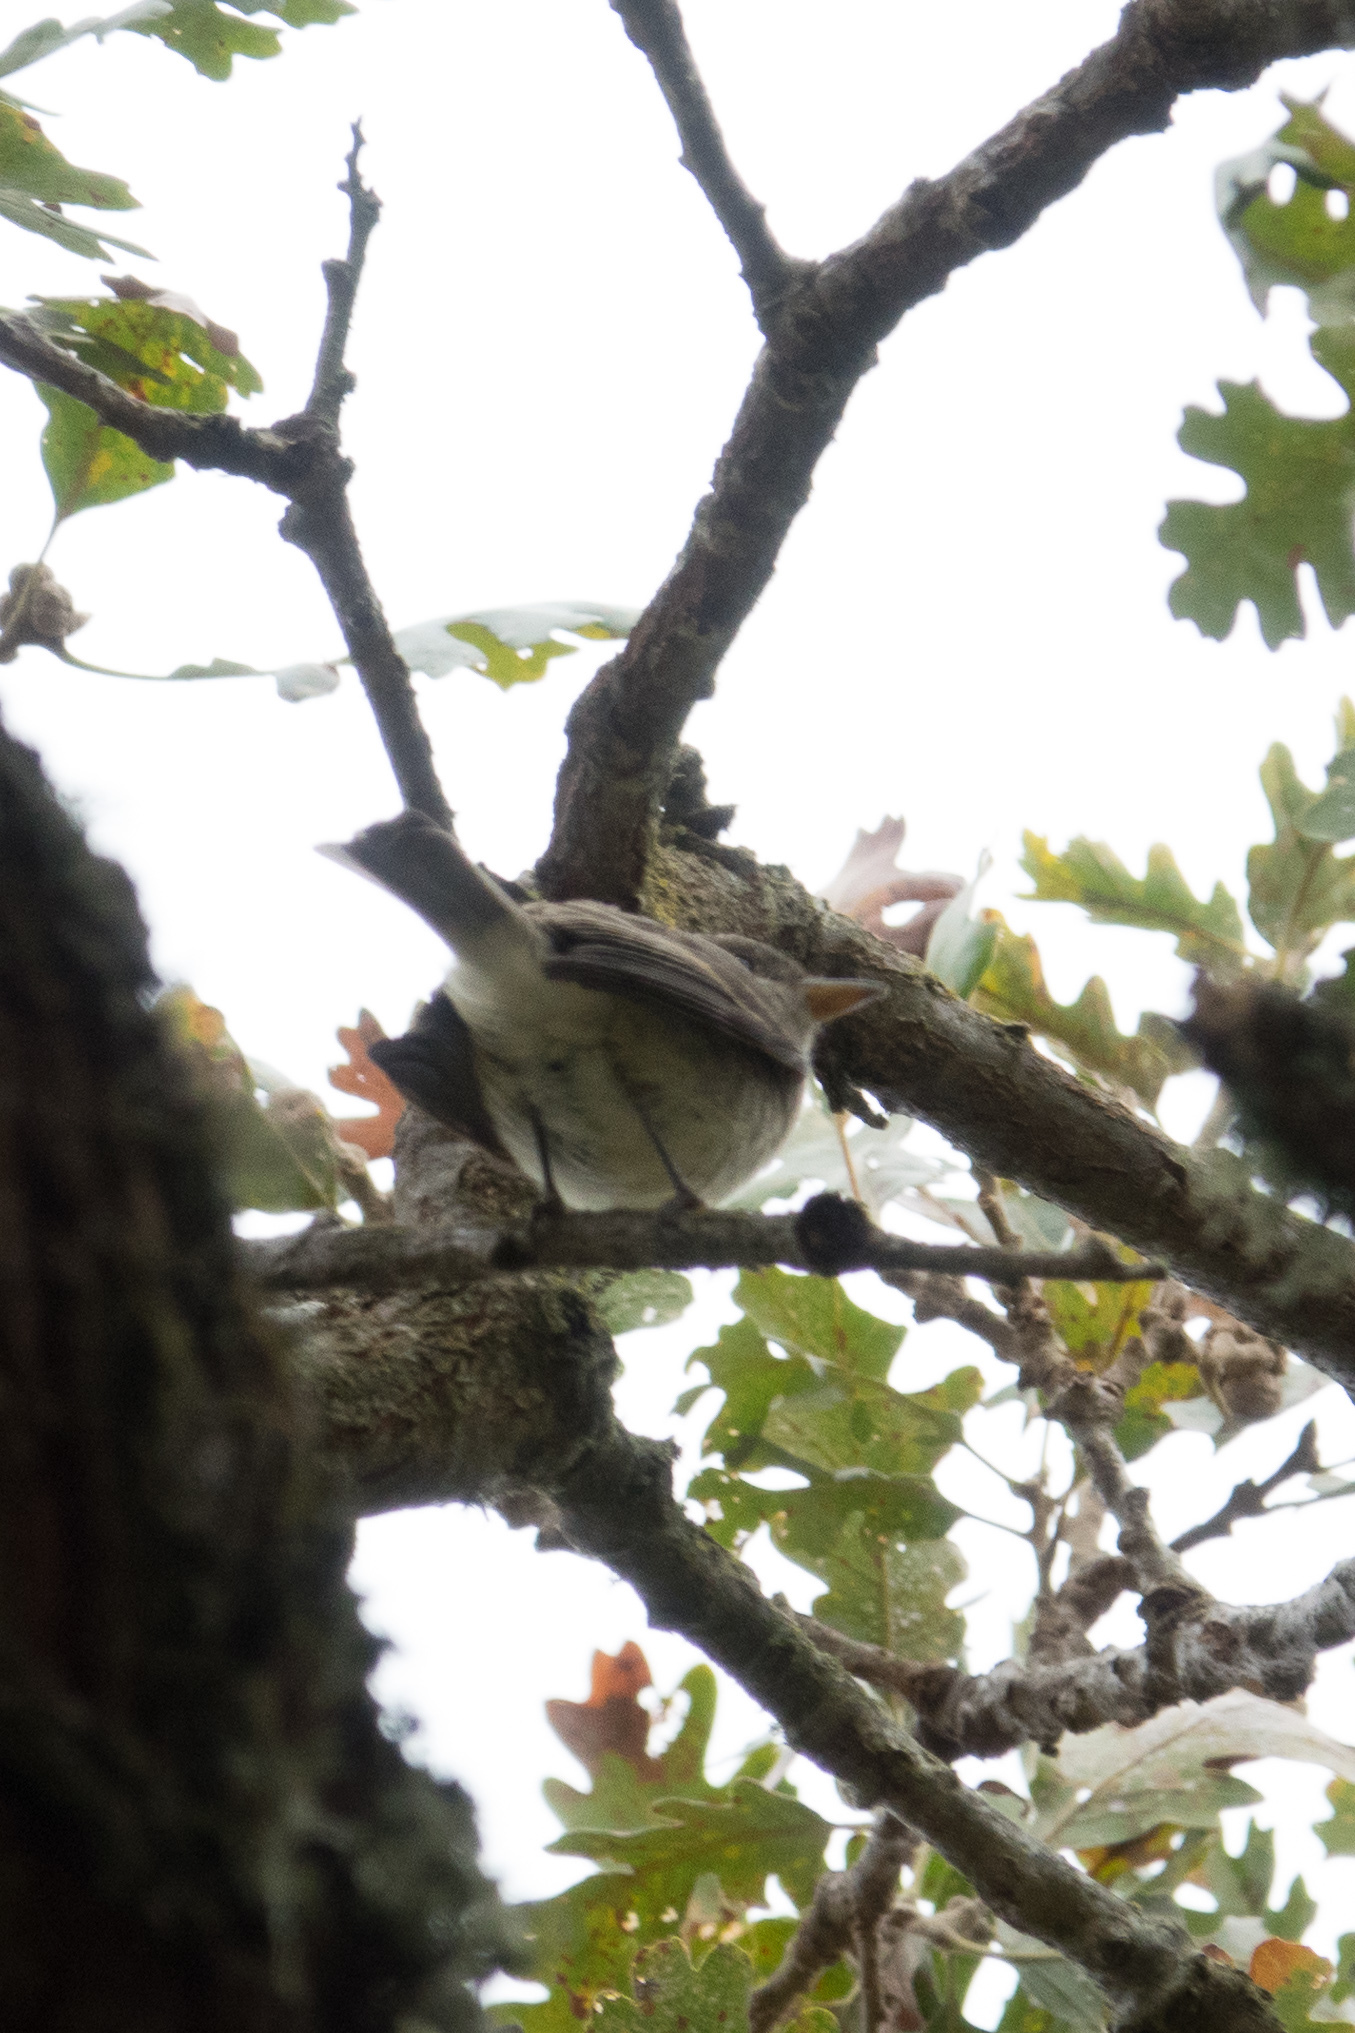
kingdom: Animalia
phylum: Chordata
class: Aves
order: Passeriformes
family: Tyrannidae
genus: Empidonax
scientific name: Empidonax traillii
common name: Willow flycatcher
